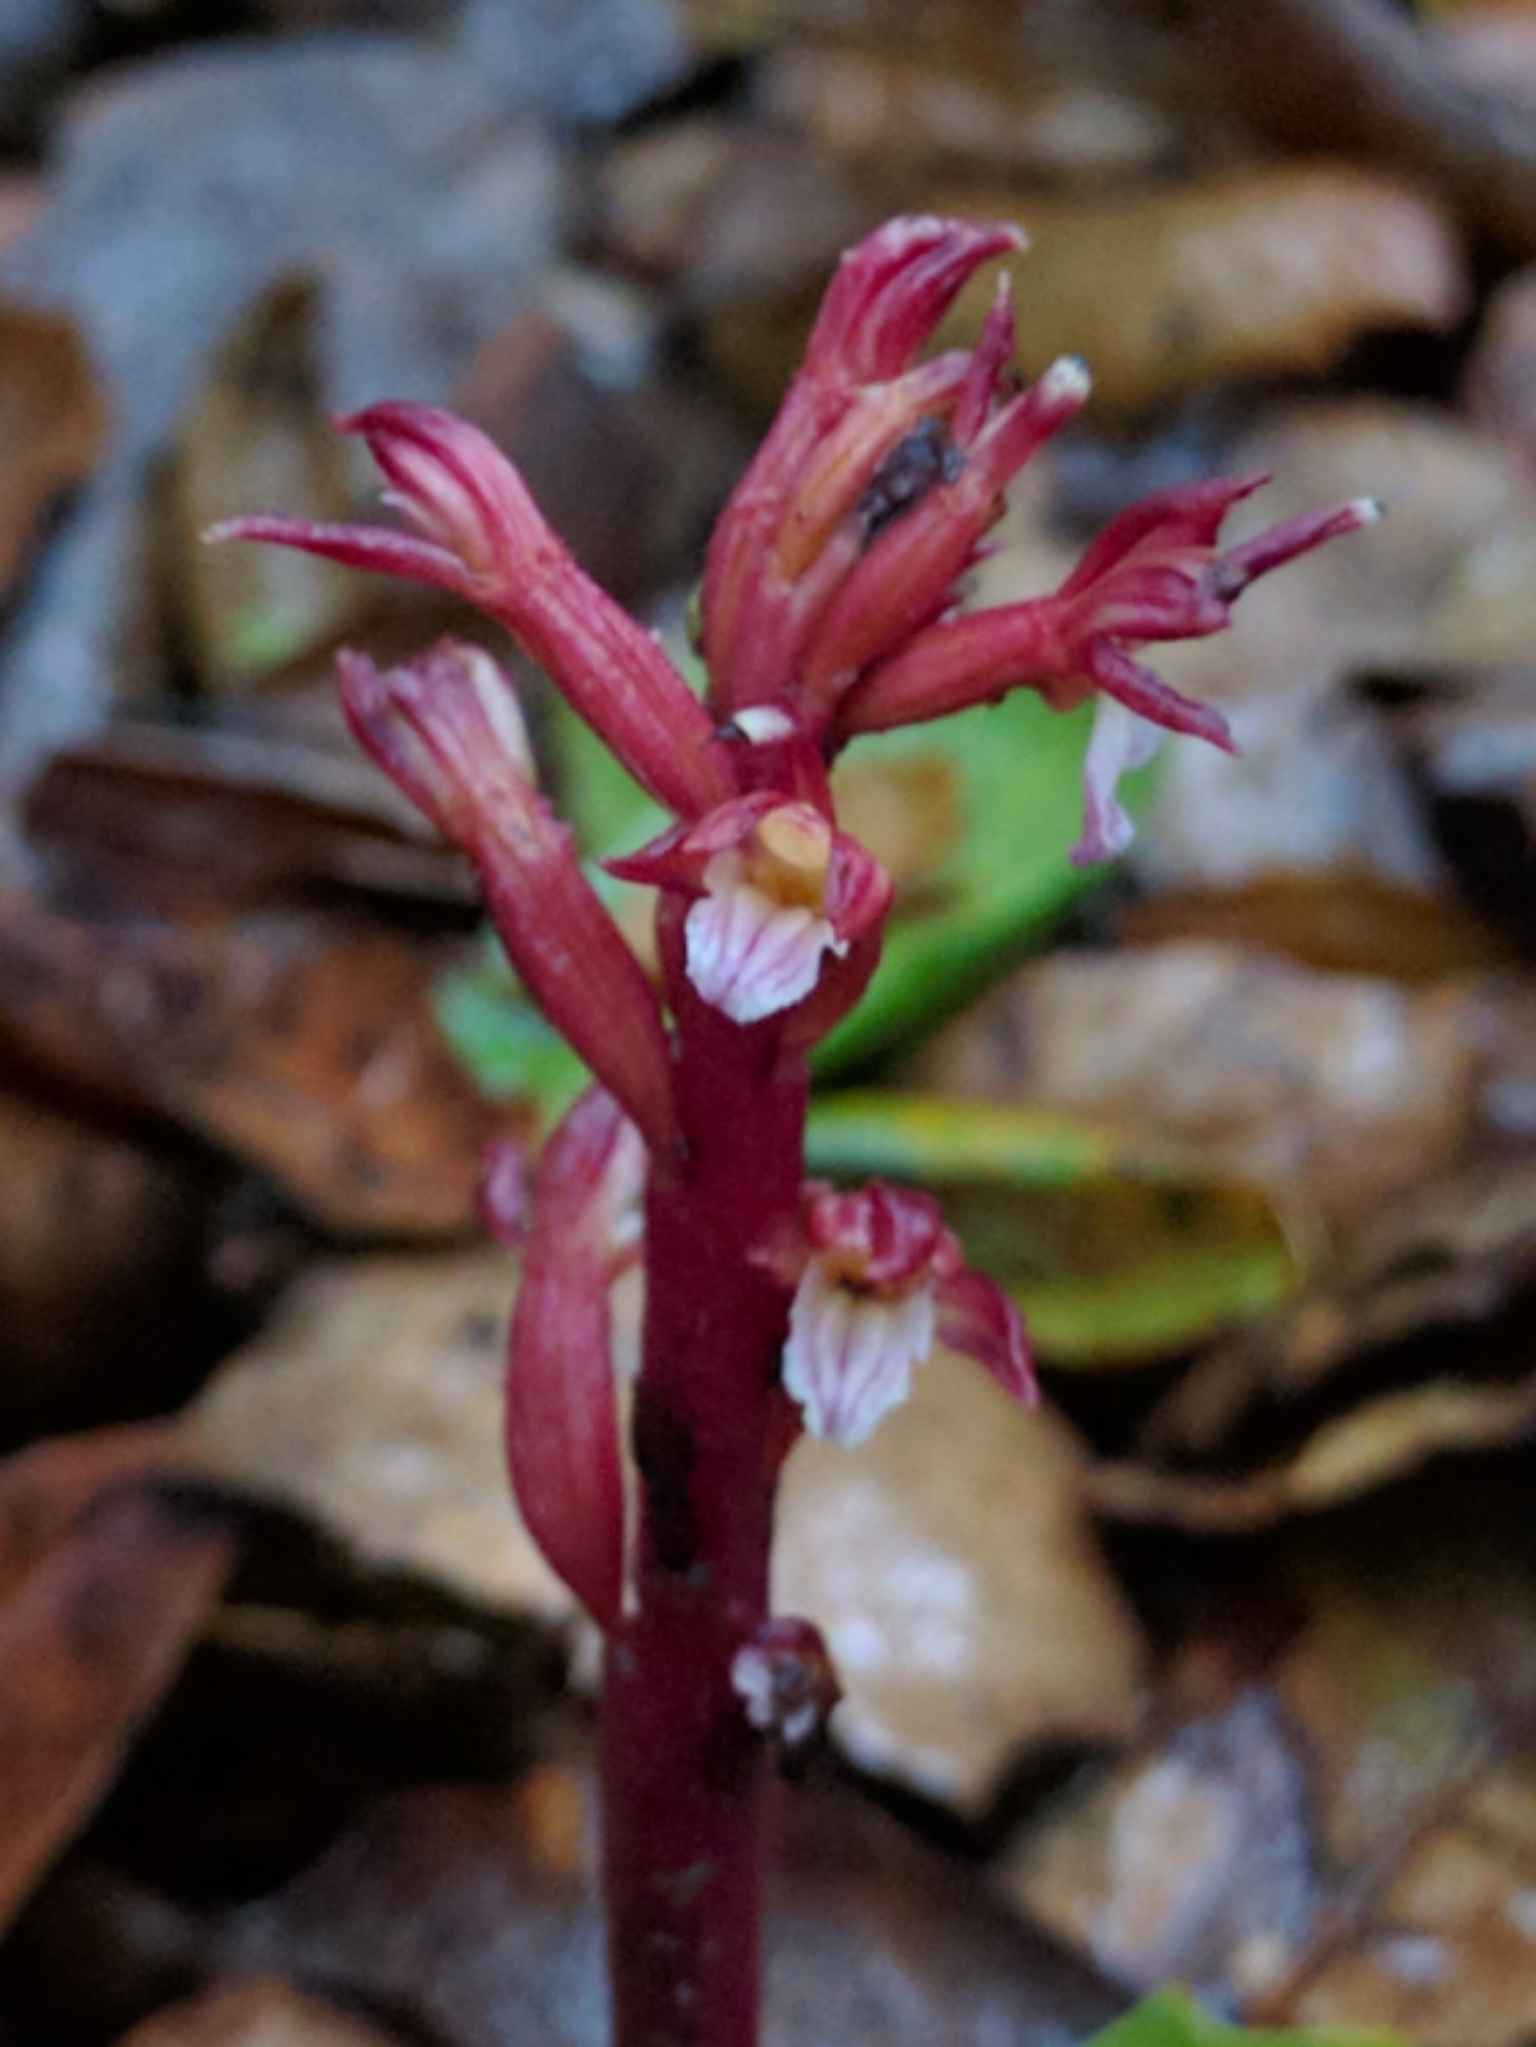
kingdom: Plantae
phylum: Tracheophyta
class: Liliopsida
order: Asparagales
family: Orchidaceae
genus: Corallorhiza
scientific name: Corallorhiza maculata
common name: Spotted coralroot
